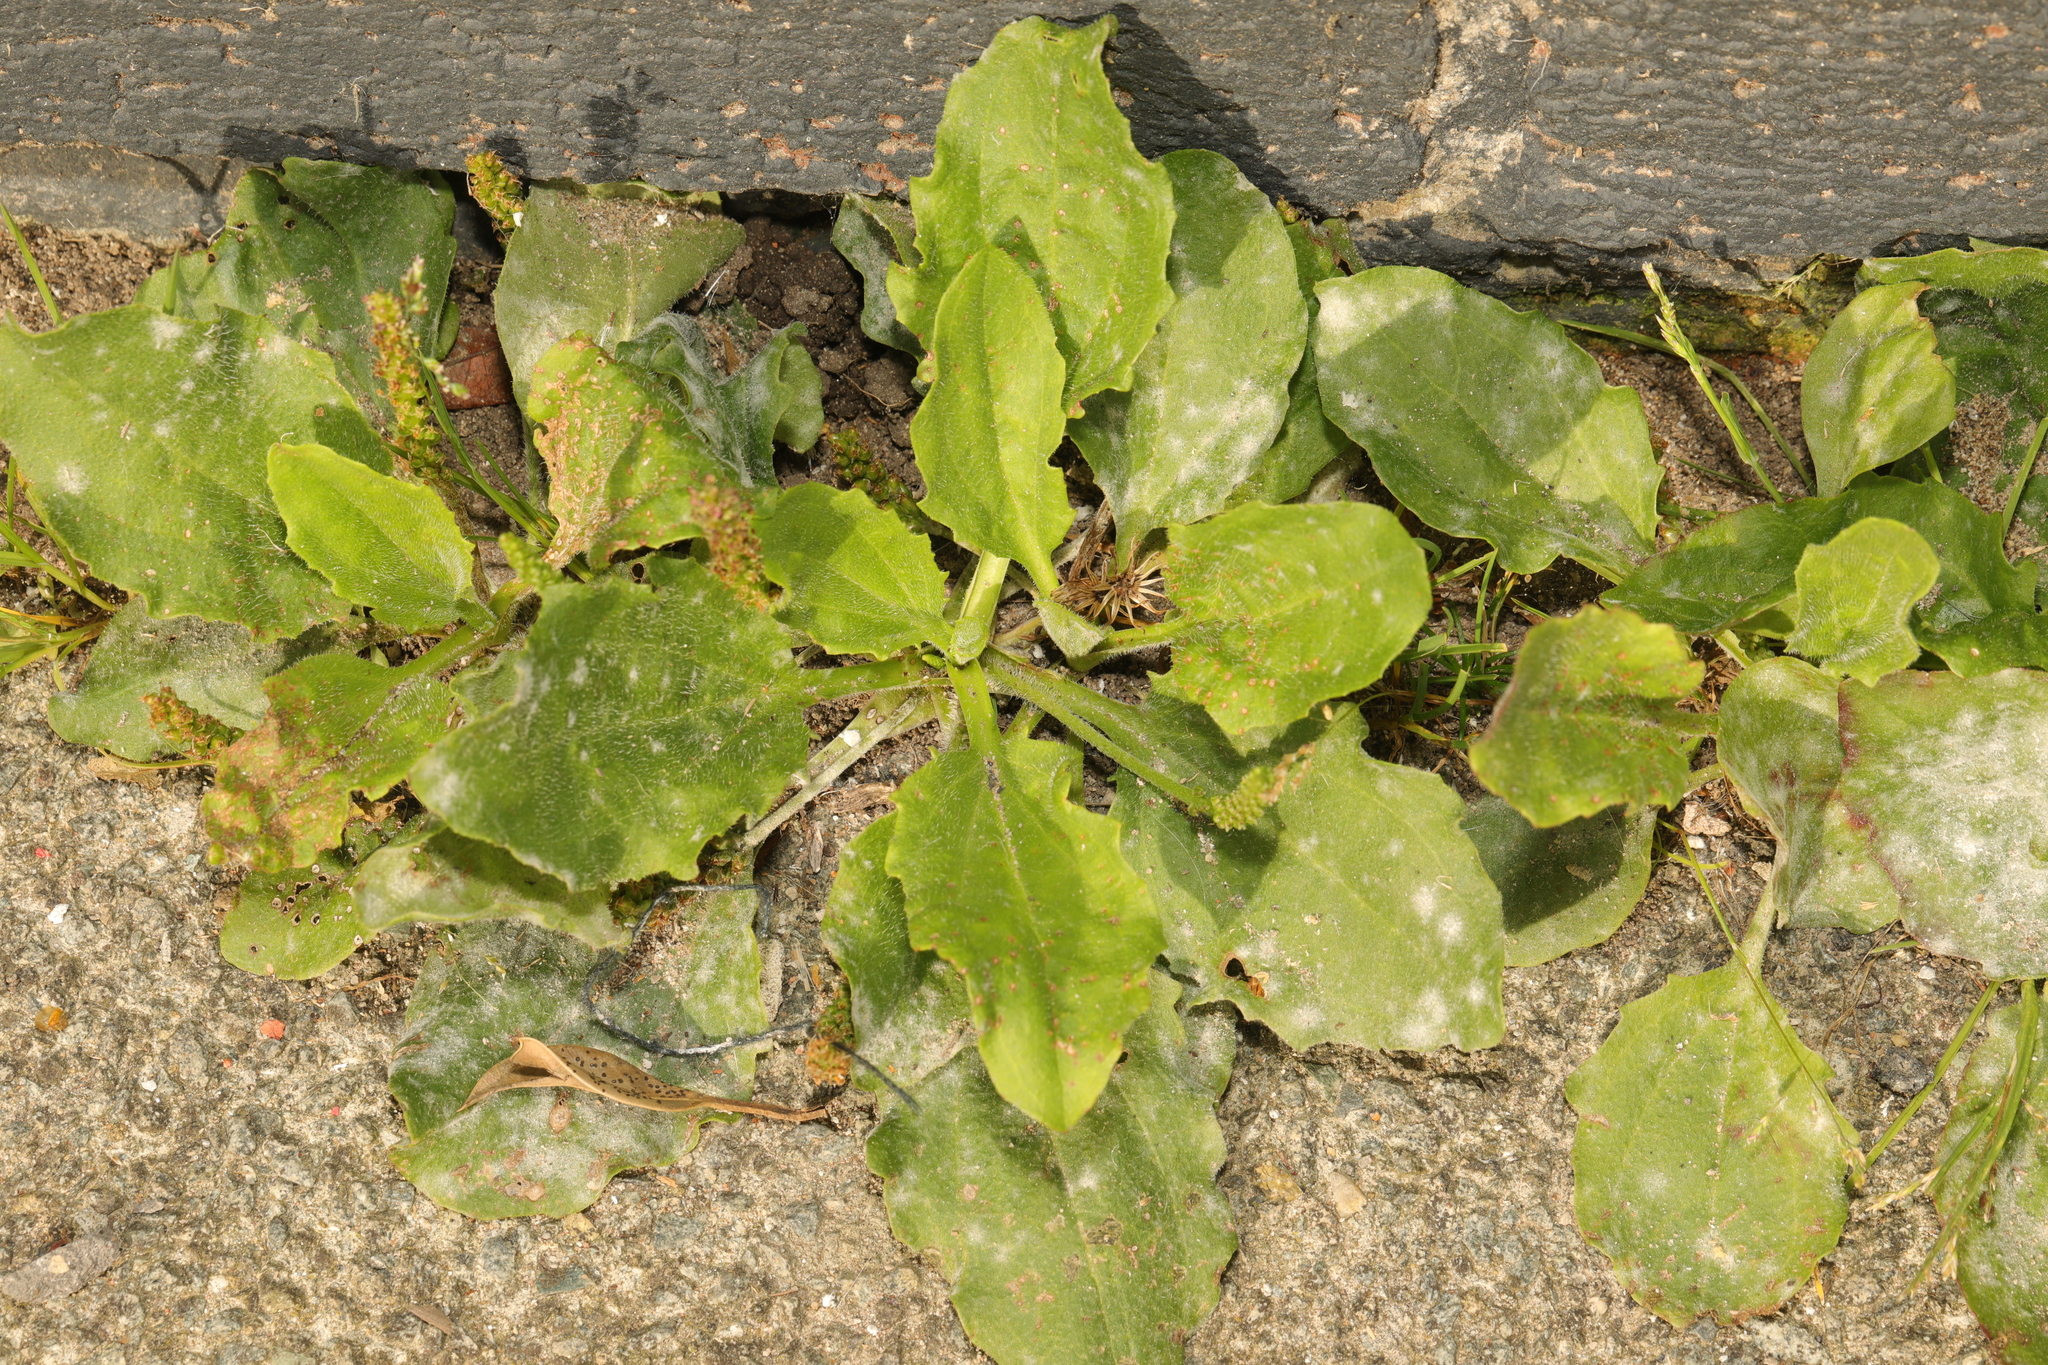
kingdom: Plantae
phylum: Tracheophyta
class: Magnoliopsida
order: Lamiales
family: Plantaginaceae
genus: Plantago
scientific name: Plantago major
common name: Common plantain
